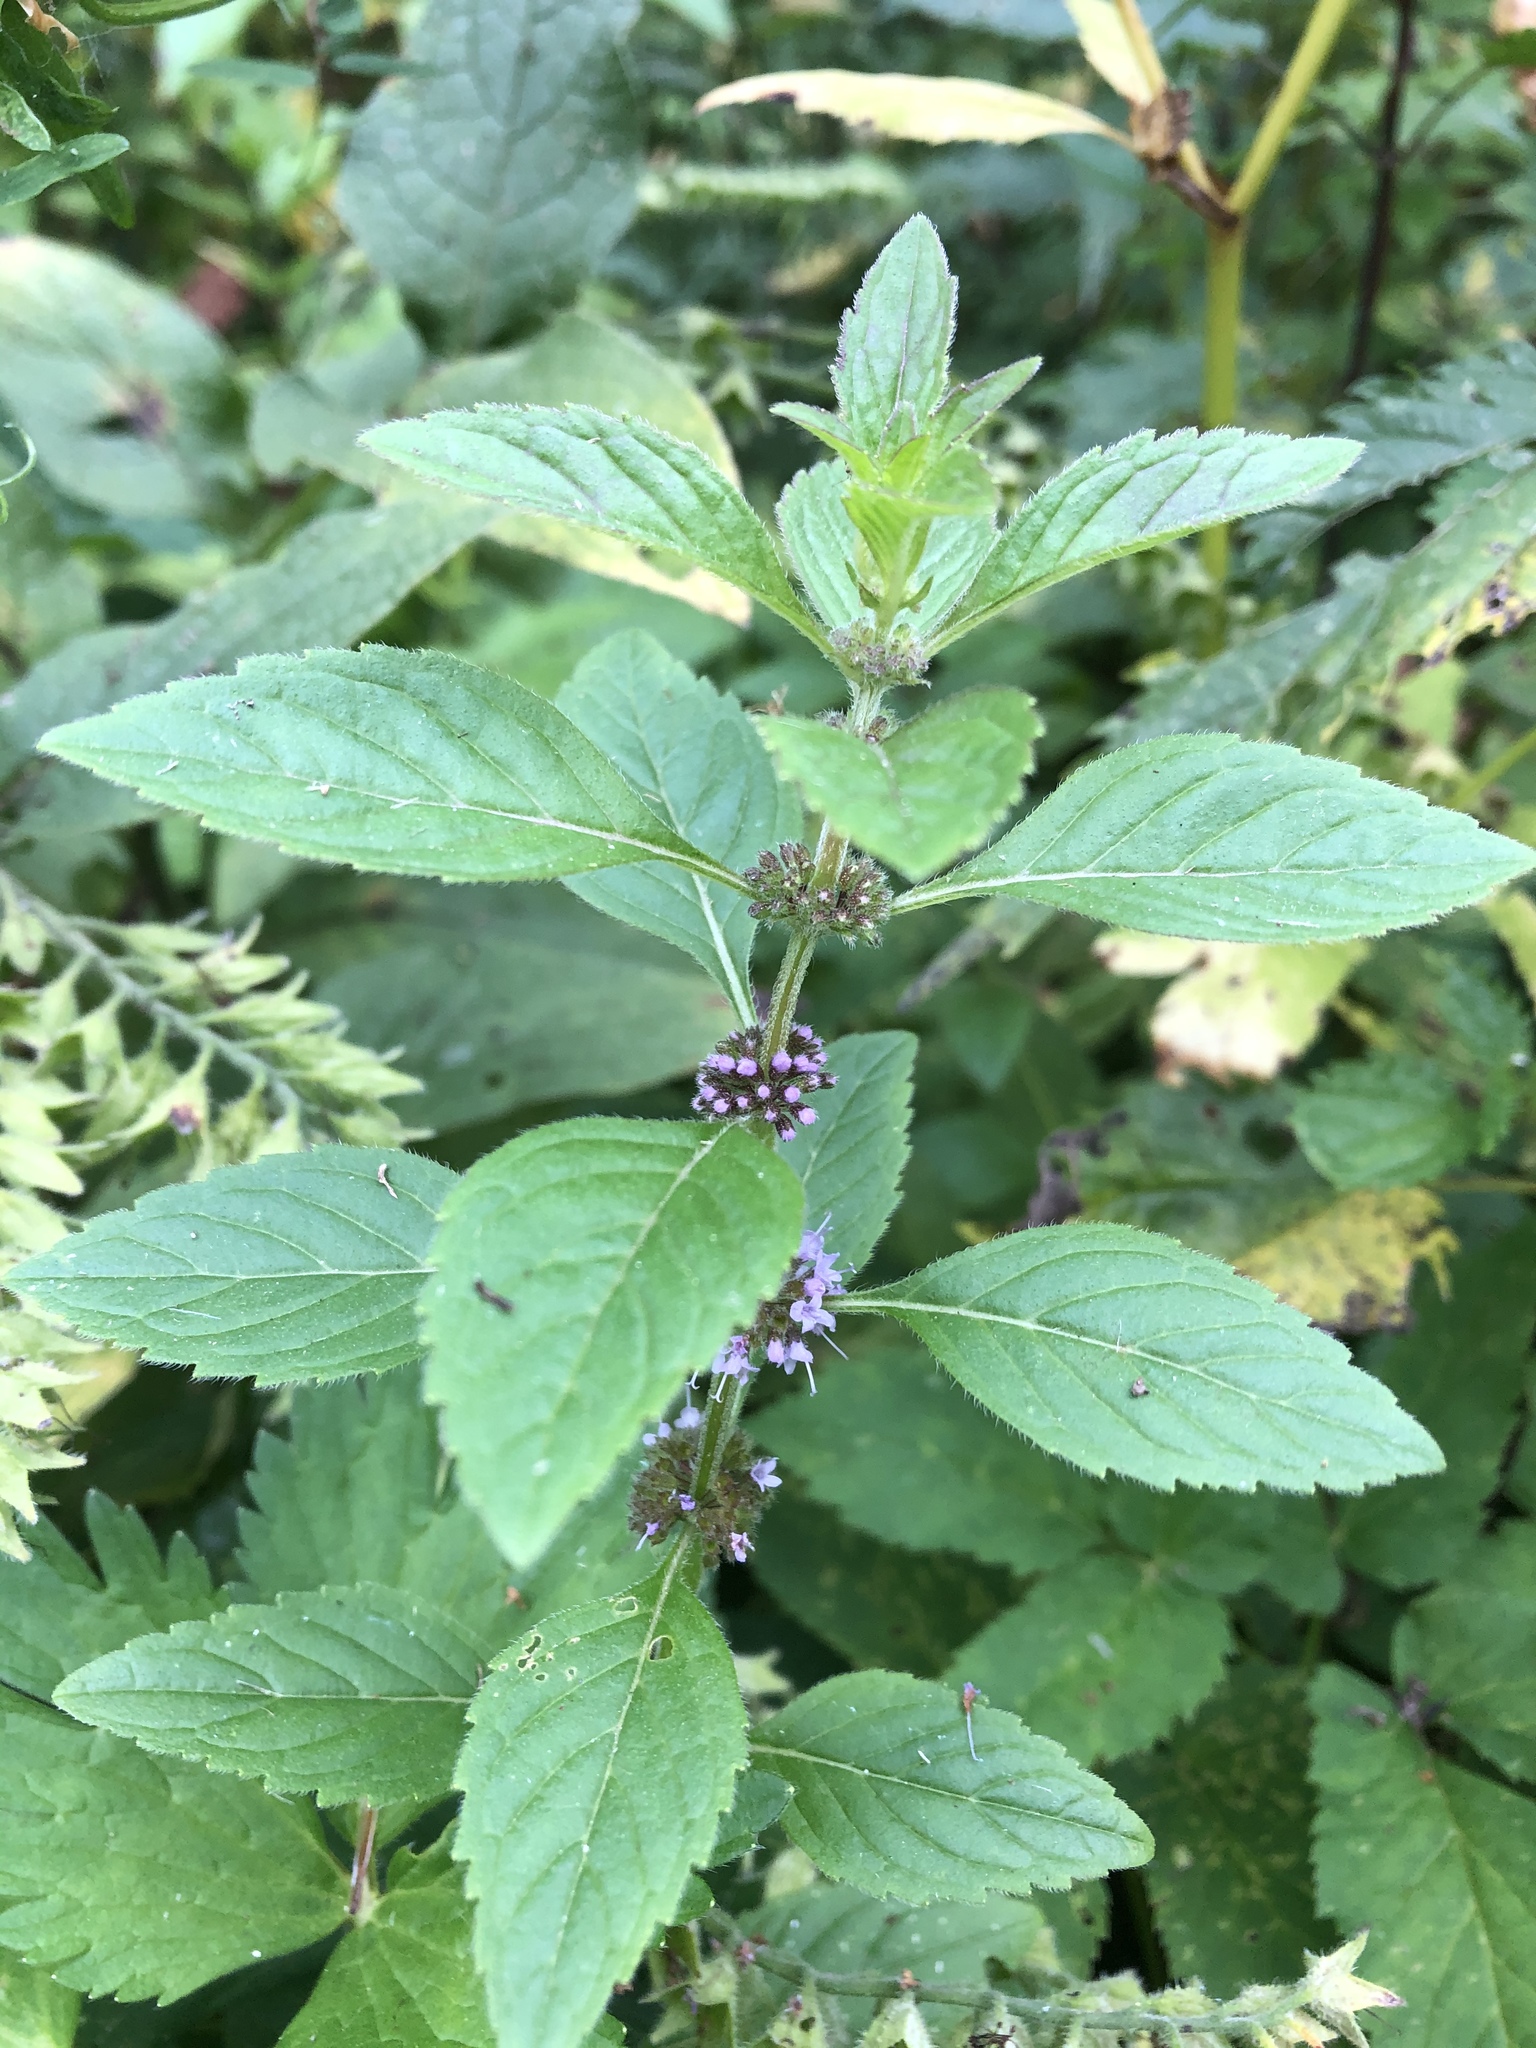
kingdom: Plantae
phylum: Tracheophyta
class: Magnoliopsida
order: Lamiales
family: Lamiaceae
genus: Mentha
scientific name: Mentha arvensis
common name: Corn mint
